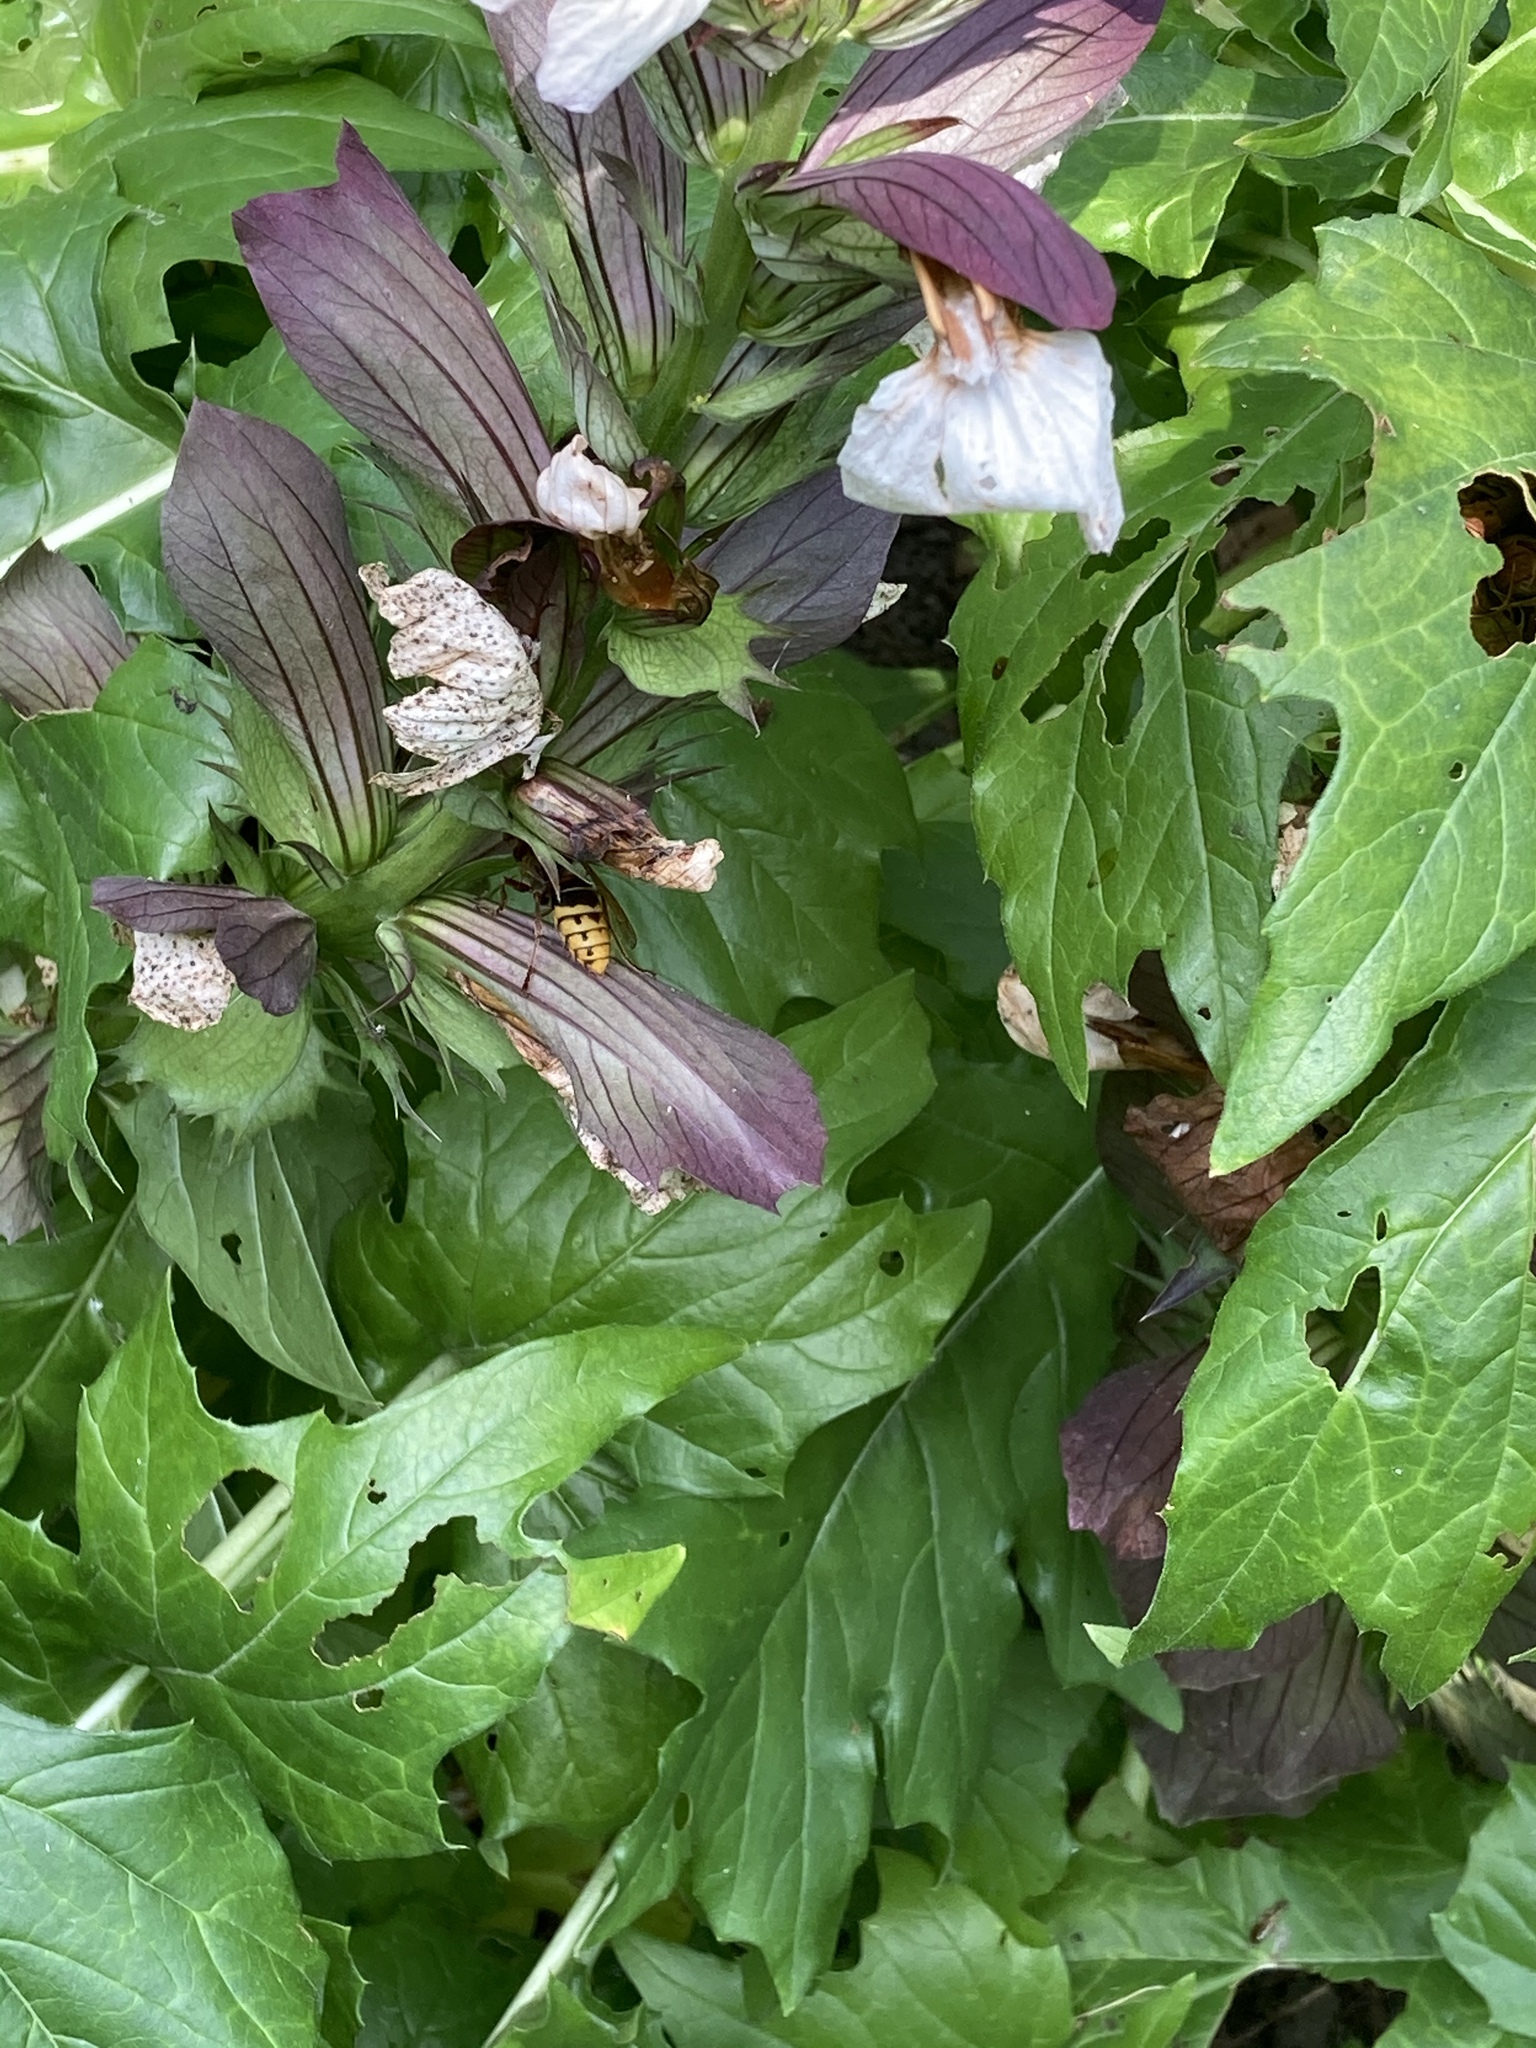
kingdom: Animalia
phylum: Arthropoda
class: Insecta
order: Hymenoptera
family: Vespidae
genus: Vespa
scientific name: Vespa crabro
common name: Hornet
